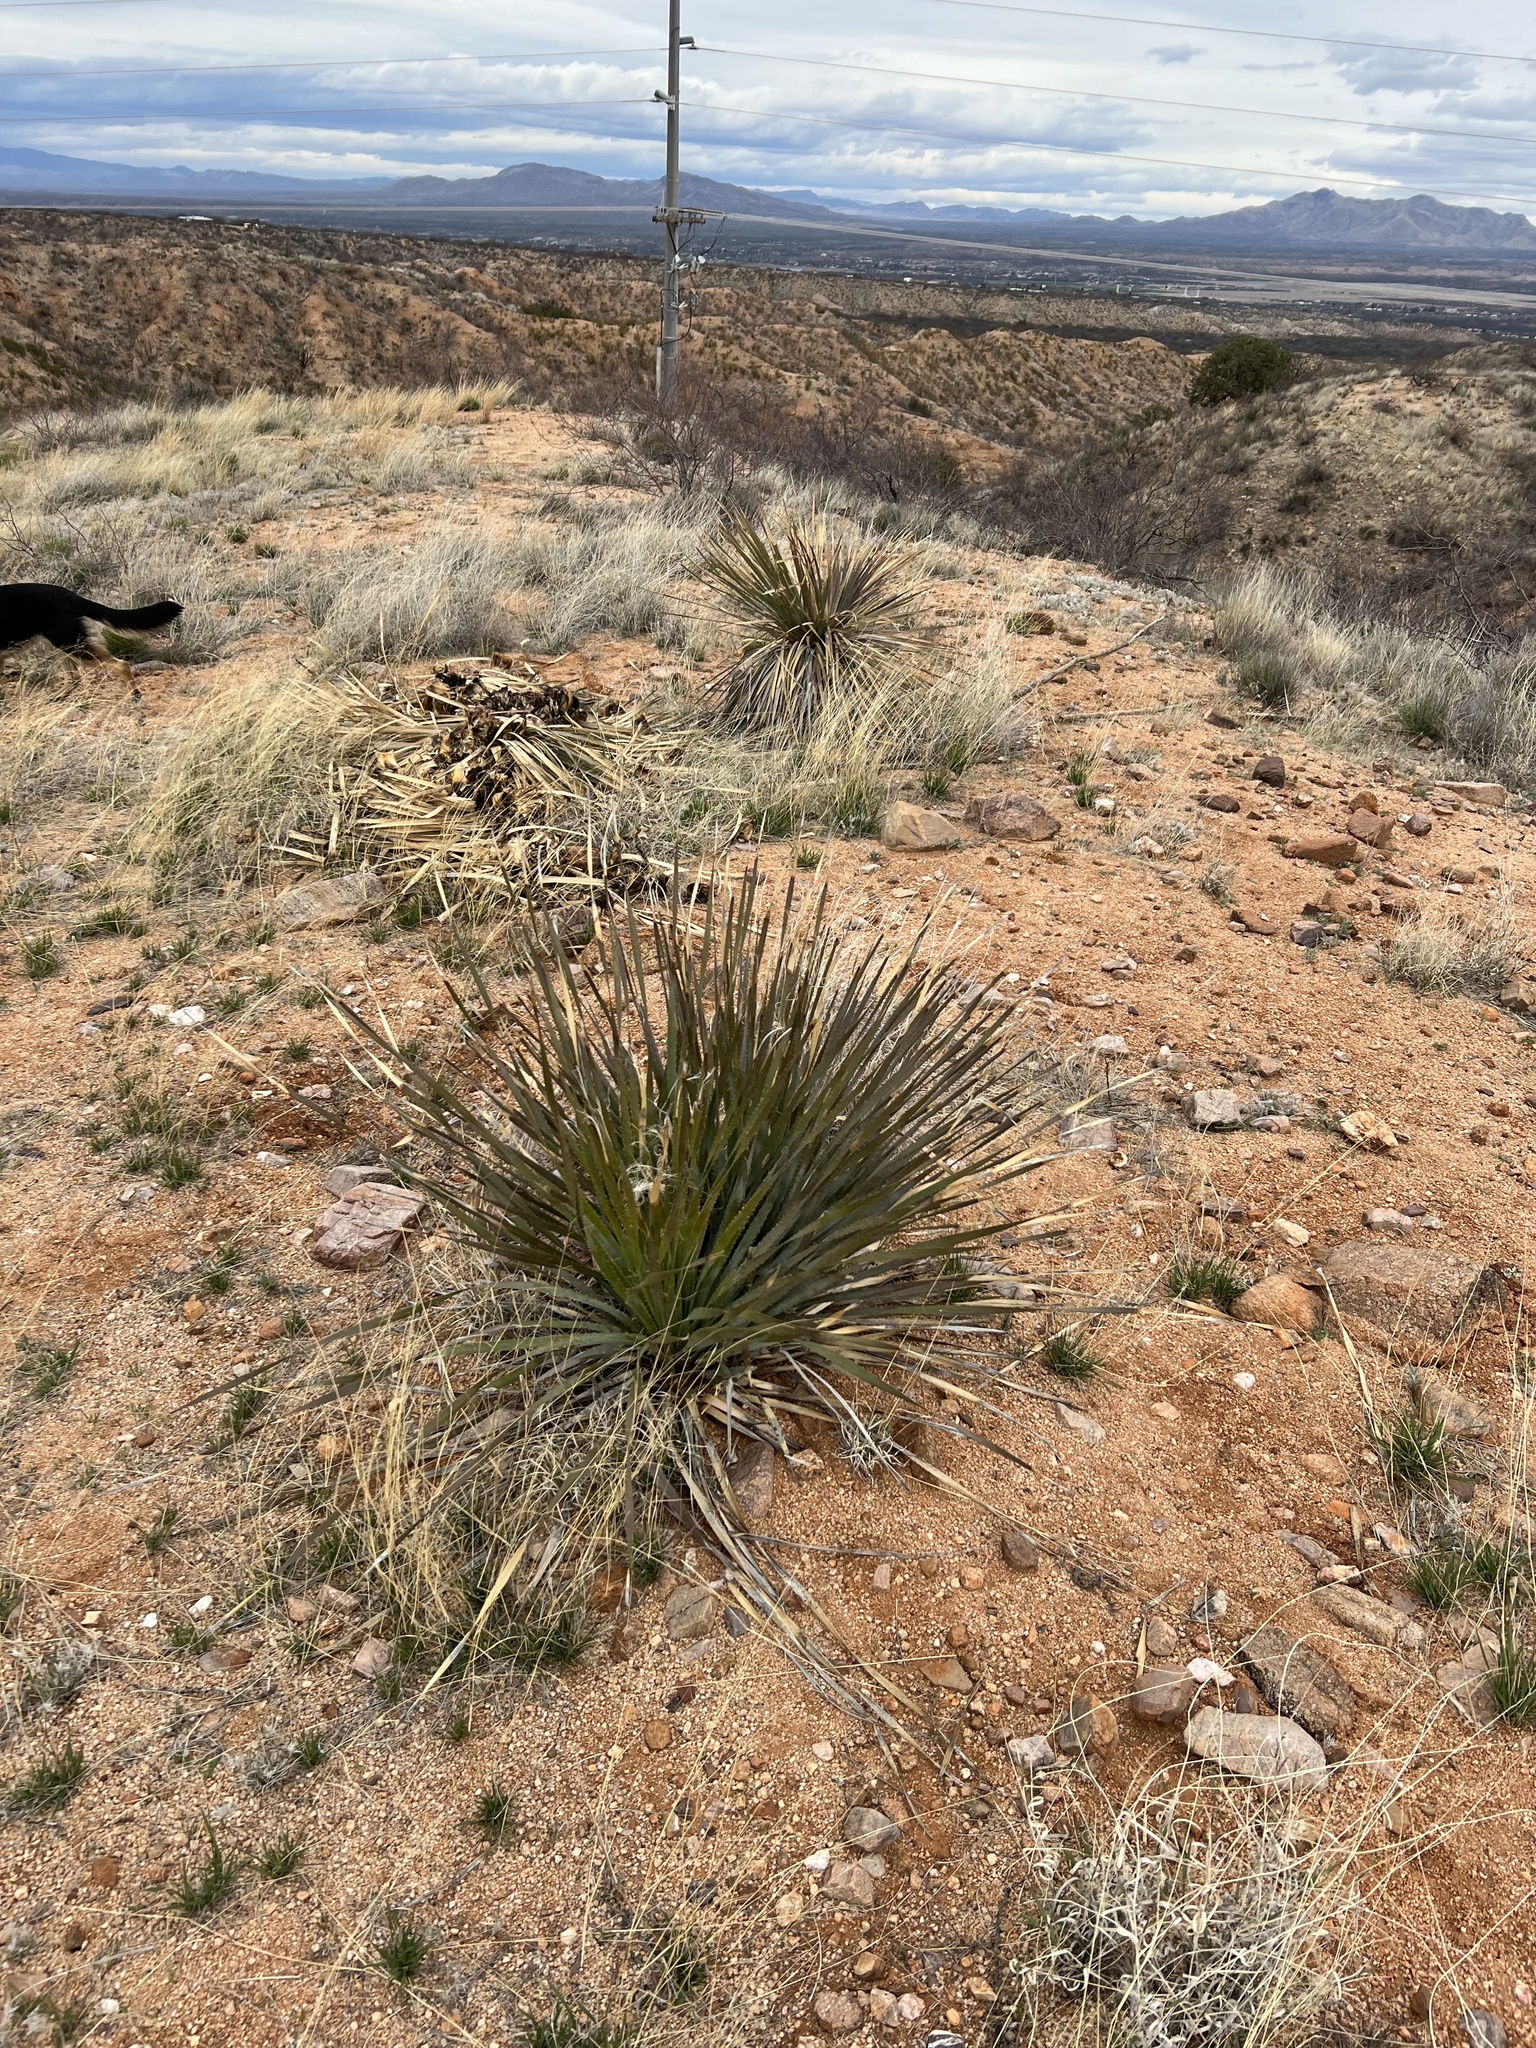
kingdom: Plantae
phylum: Tracheophyta
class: Liliopsida
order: Asparagales
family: Asparagaceae
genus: Dasylirion
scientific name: Dasylirion wheeleri
